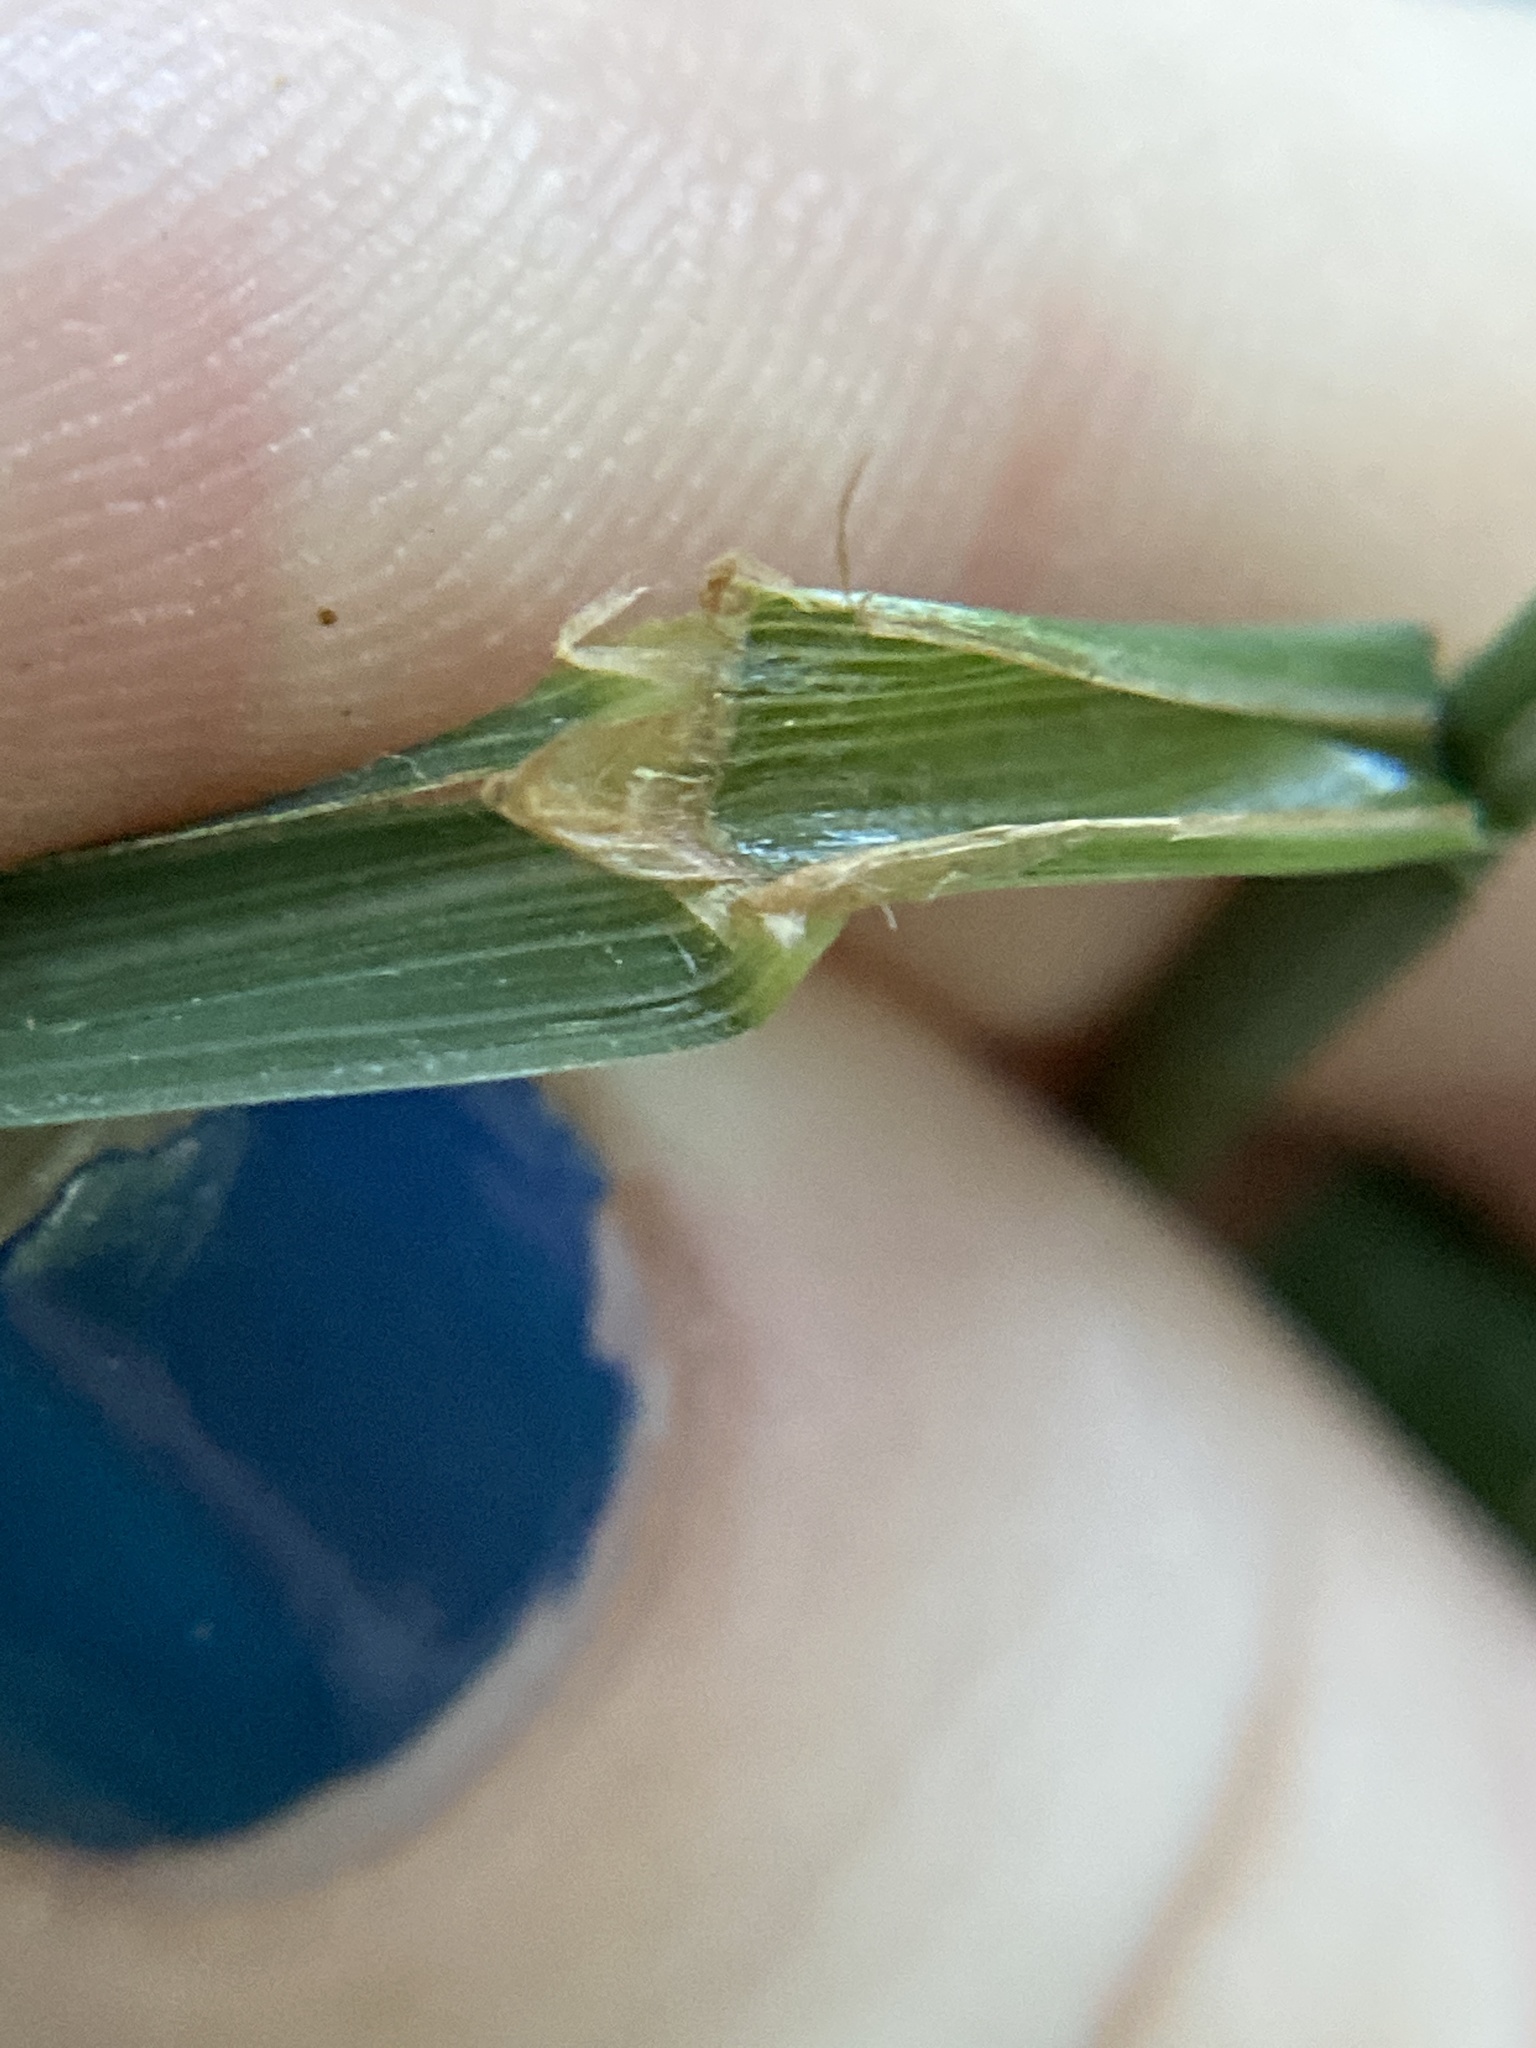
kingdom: Plantae
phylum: Tracheophyta
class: Liliopsida
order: Poales
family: Poaceae
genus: Cinna
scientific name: Cinna arundinacea
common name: Stout woodreed
